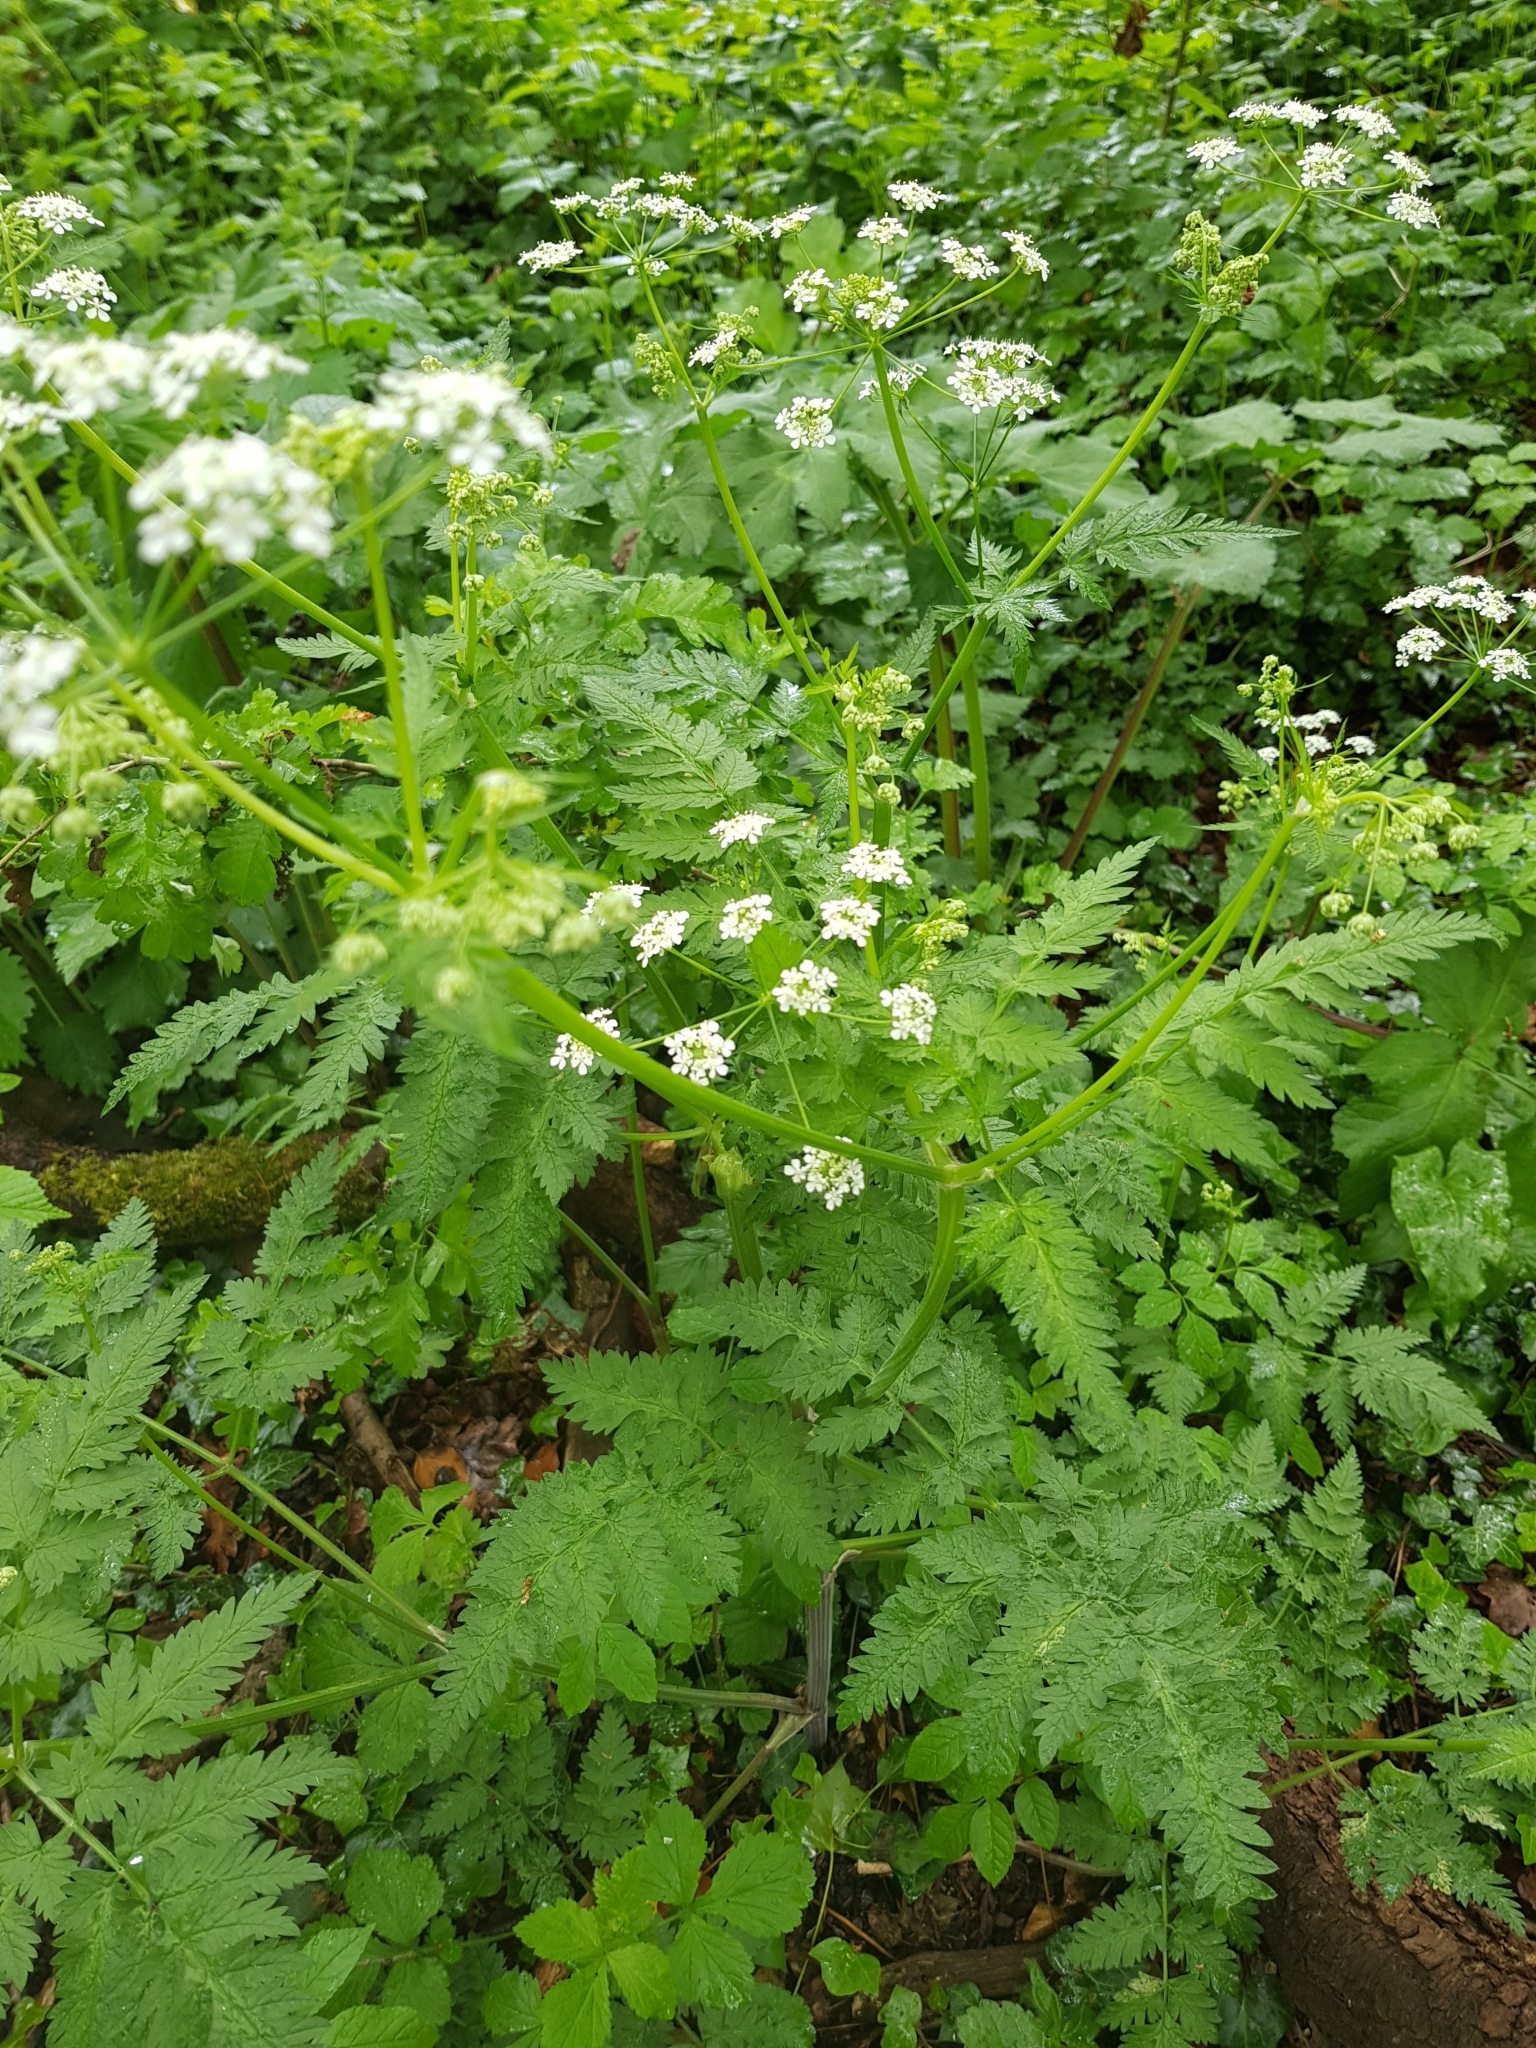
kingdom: Plantae
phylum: Tracheophyta
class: Magnoliopsida
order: Apiales
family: Apiaceae
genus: Anthriscus
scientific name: Anthriscus sylvestris
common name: Cow parsley
